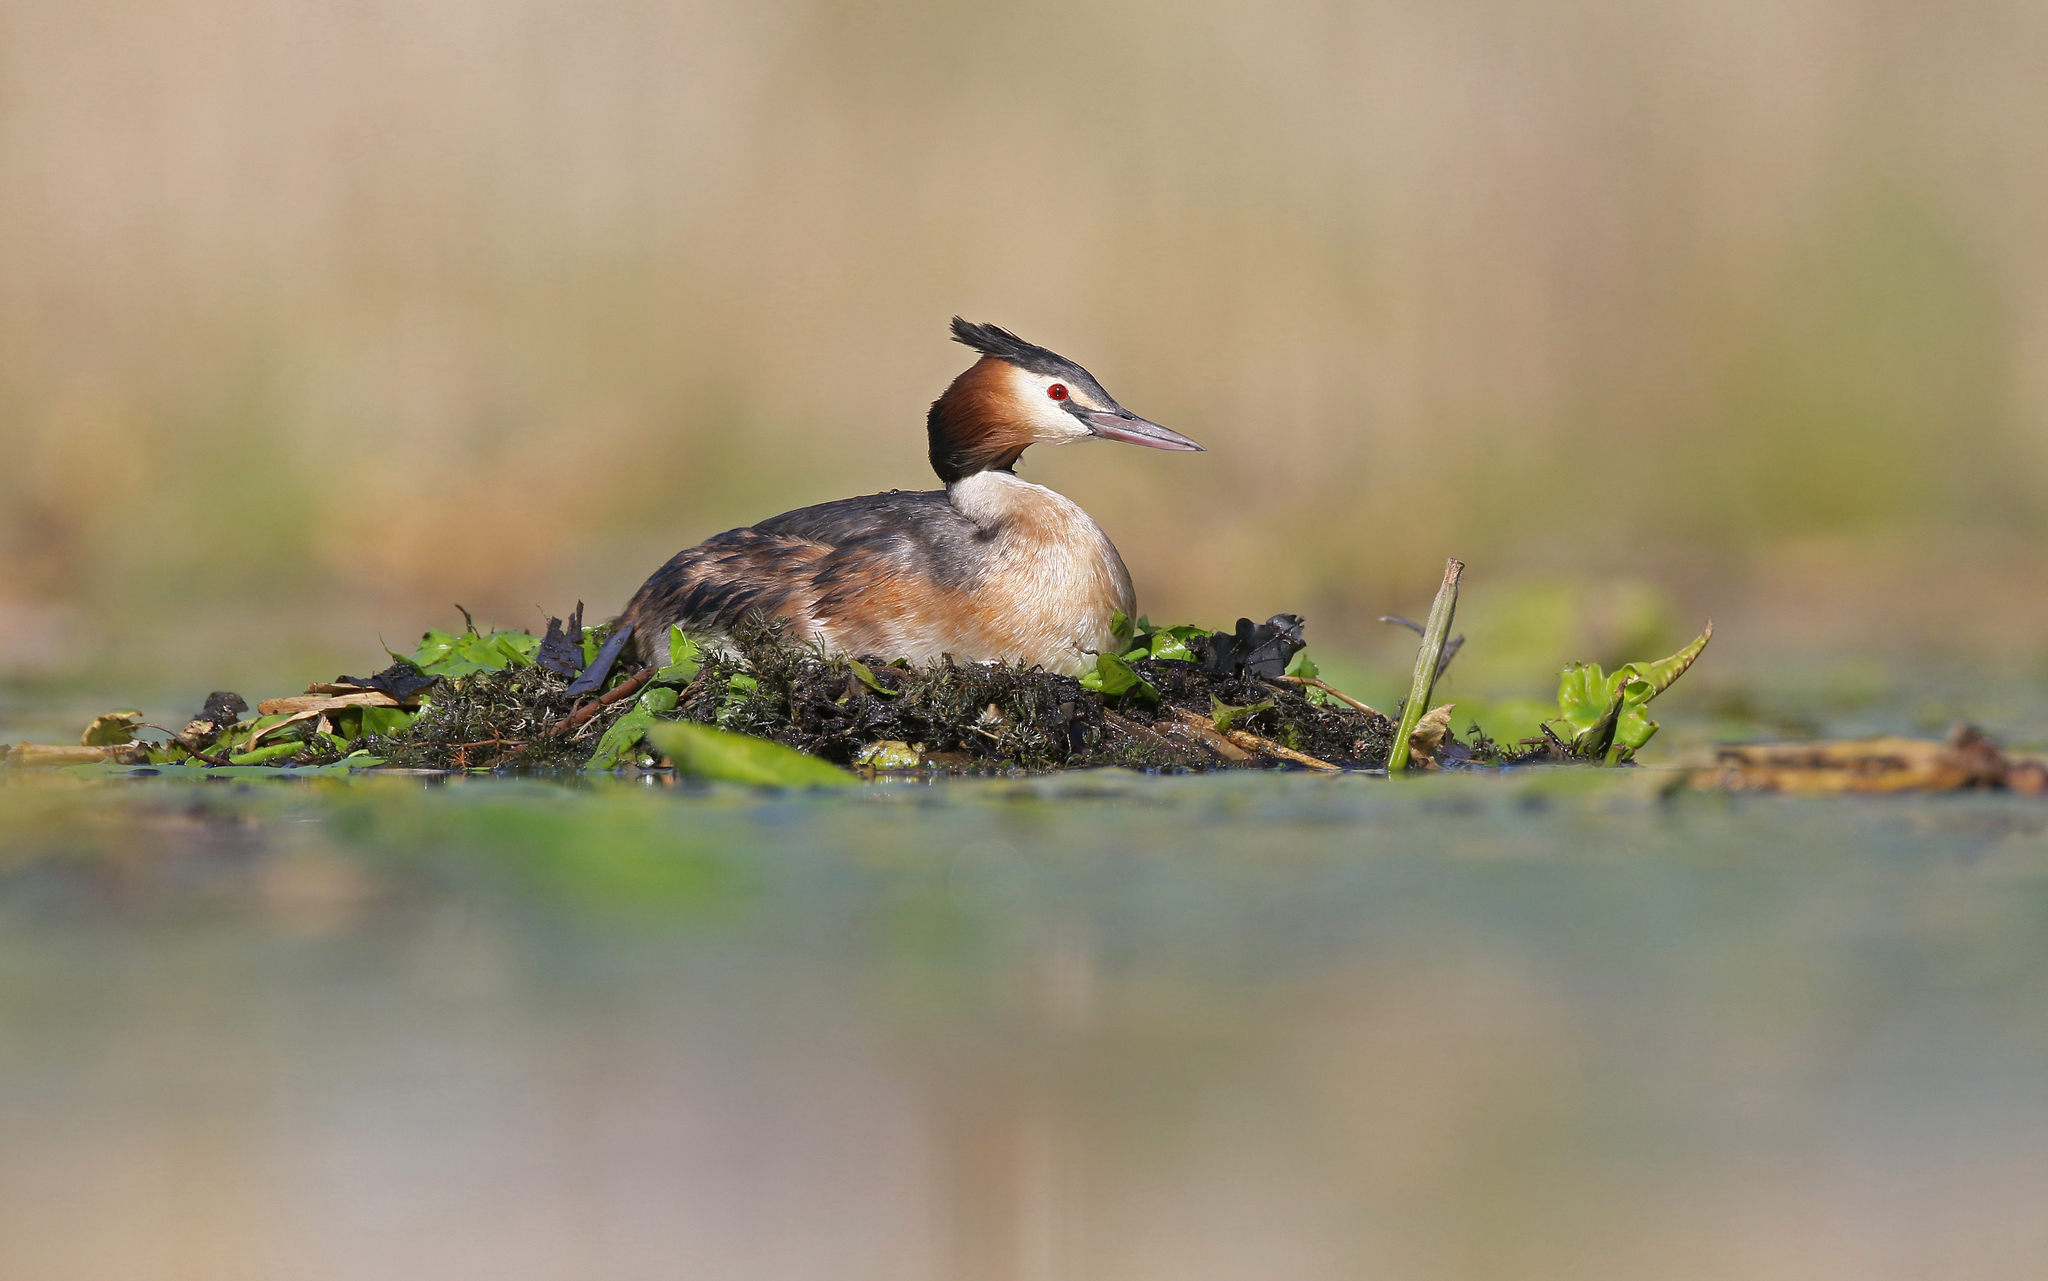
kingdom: Animalia
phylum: Chordata
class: Aves
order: Podicipediformes
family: Podicipedidae
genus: Podiceps
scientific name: Podiceps cristatus
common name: Great crested grebe
